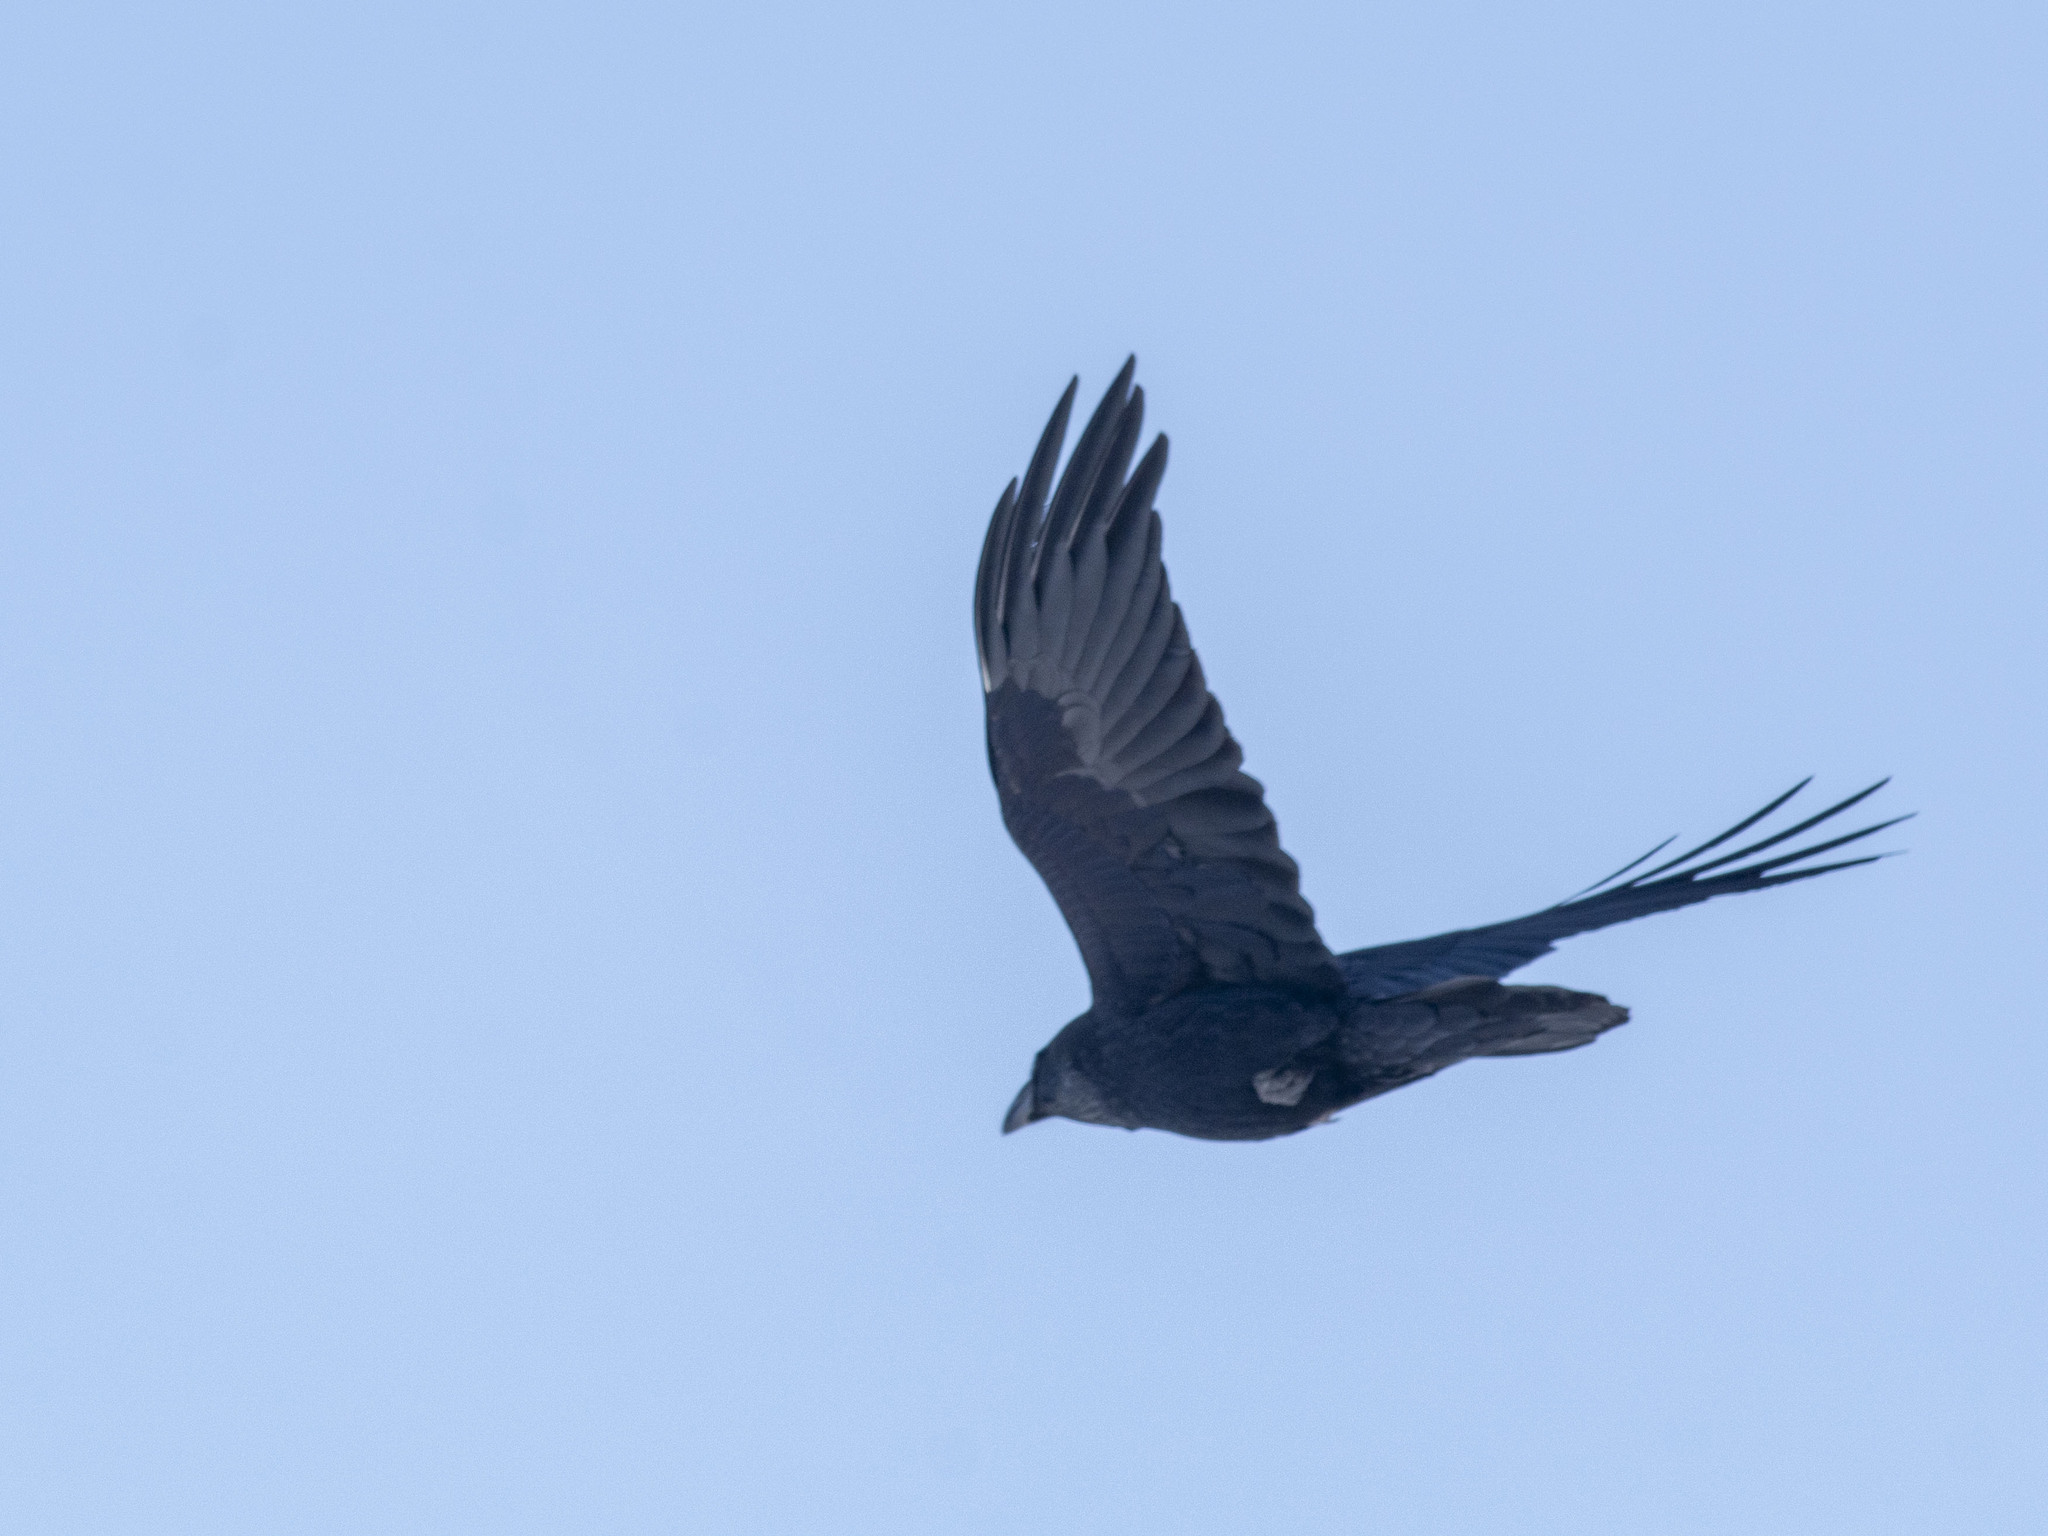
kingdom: Animalia
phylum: Chordata
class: Aves
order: Passeriformes
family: Corvidae
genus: Corvus
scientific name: Corvus corax
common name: Common raven
